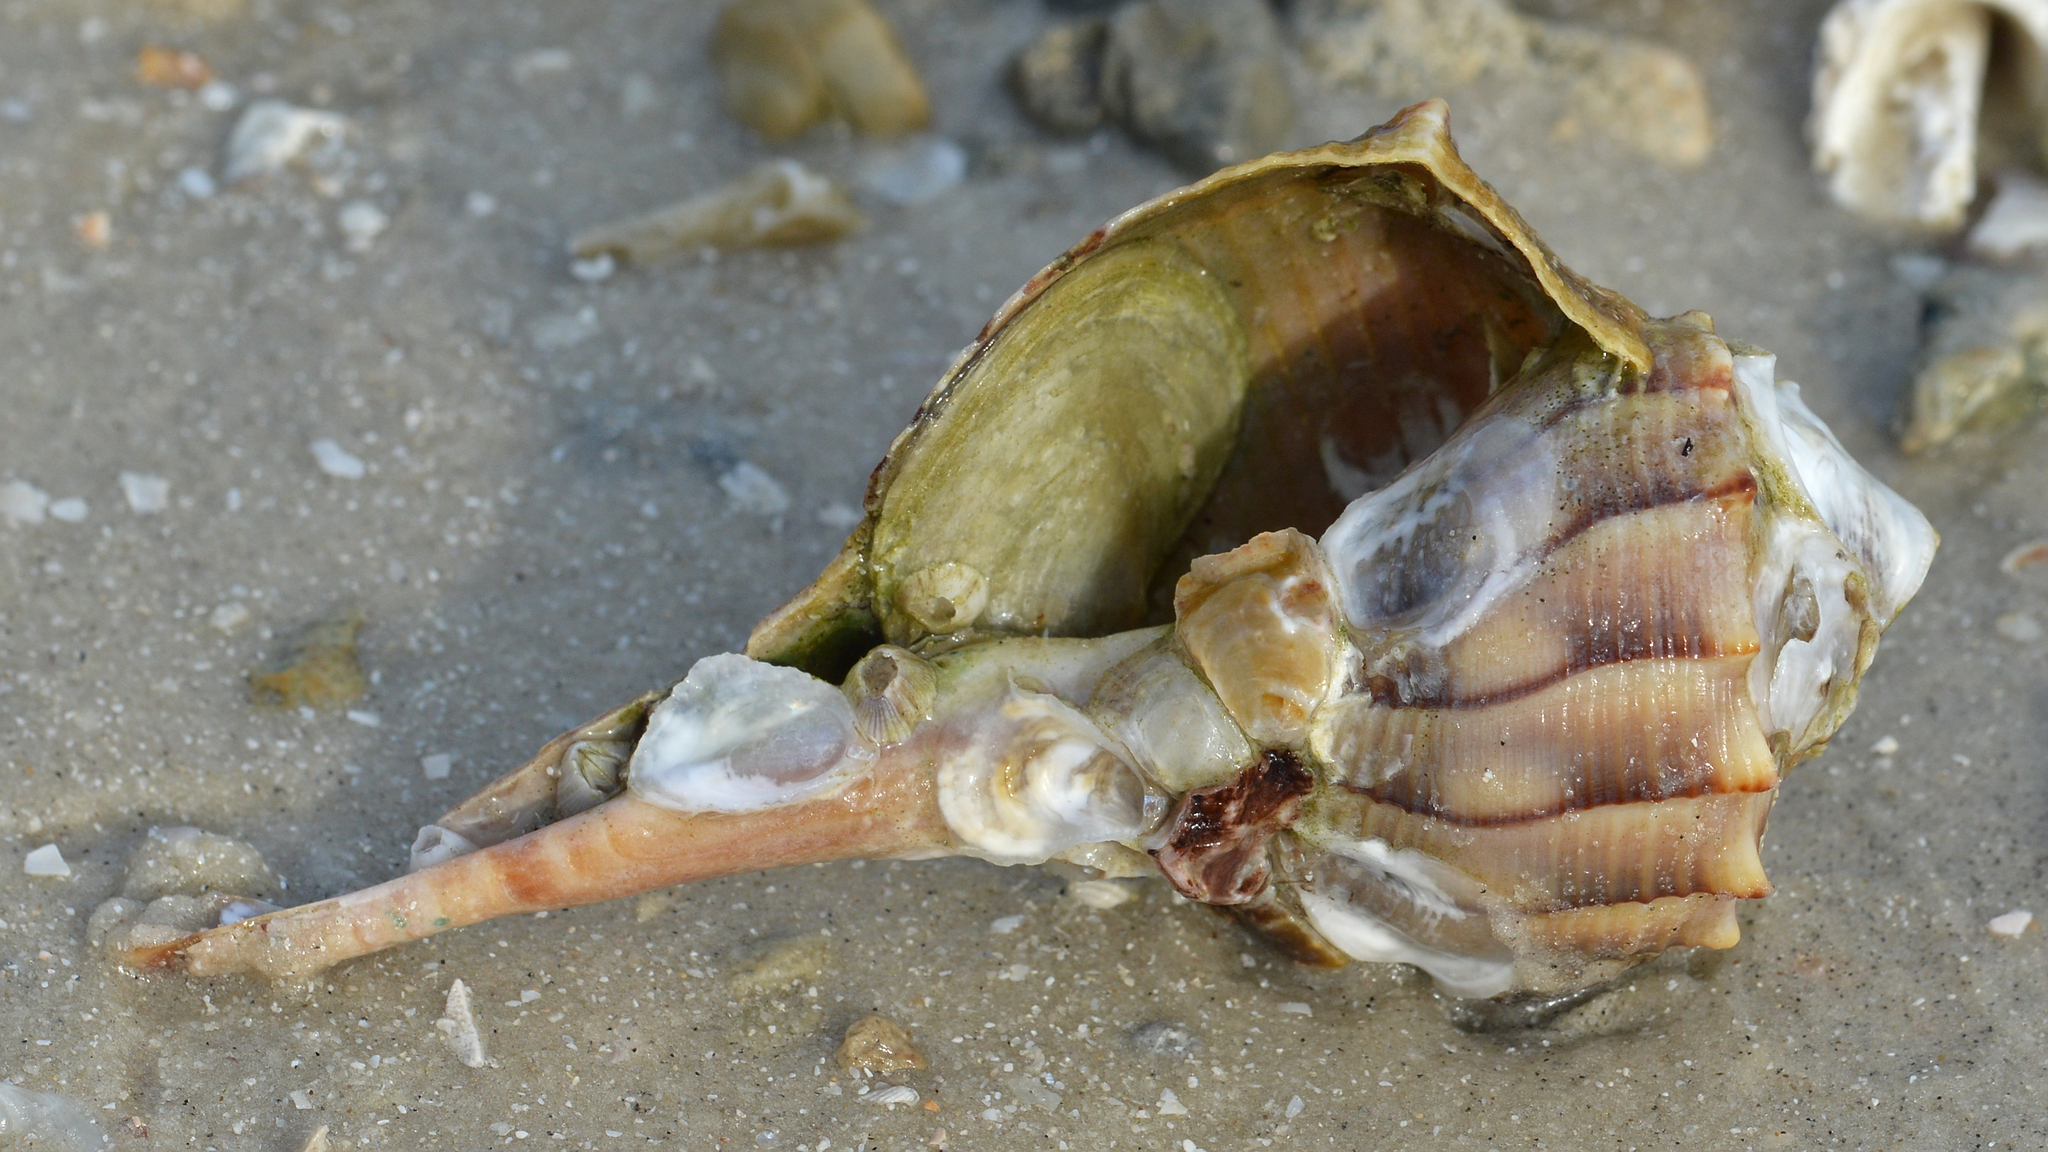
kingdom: Animalia
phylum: Mollusca
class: Gastropoda
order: Neogastropoda
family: Busyconidae
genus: Sinistrofulgur
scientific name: Sinistrofulgur sinistrum
